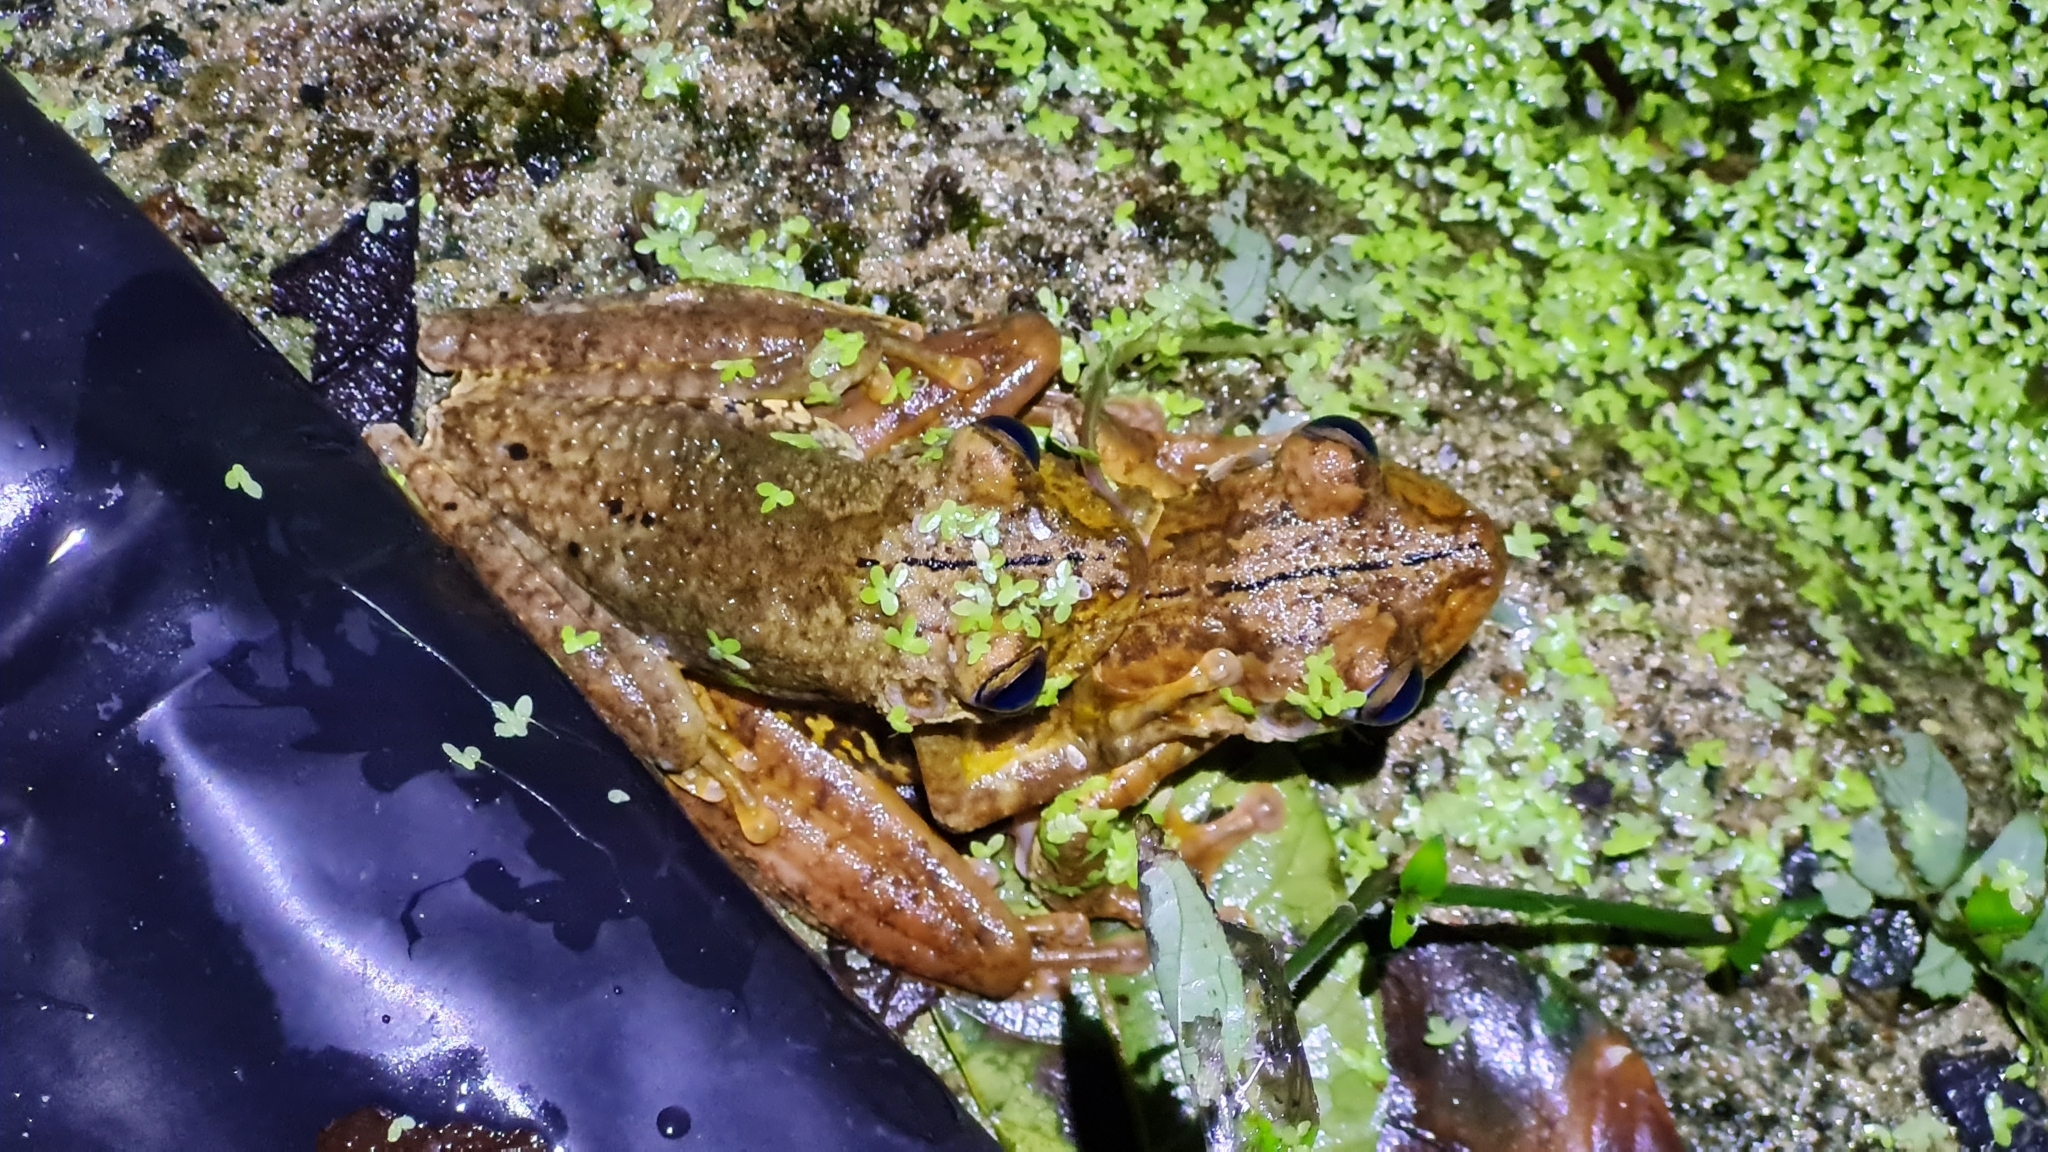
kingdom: Animalia
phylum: Chordata
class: Amphibia
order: Anura
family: Hylidae
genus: Boana
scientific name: Boana rosenbergi
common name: Rosenberg´s gladiator treefrog
